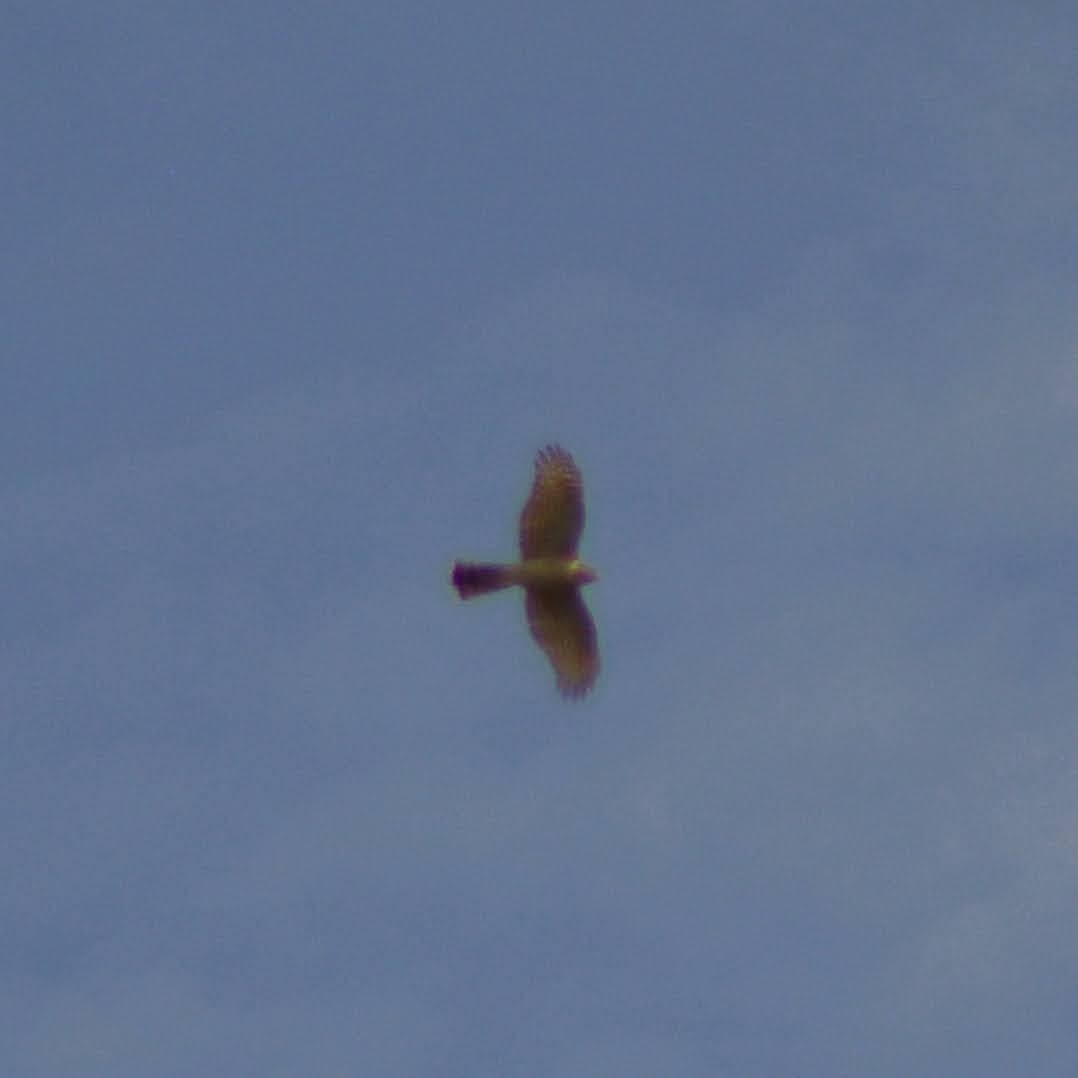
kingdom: Animalia
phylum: Chordata
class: Aves
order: Accipitriformes
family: Accipitridae
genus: Accipiter
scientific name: Accipiter nisus
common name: Eurasian sparrowhawk
